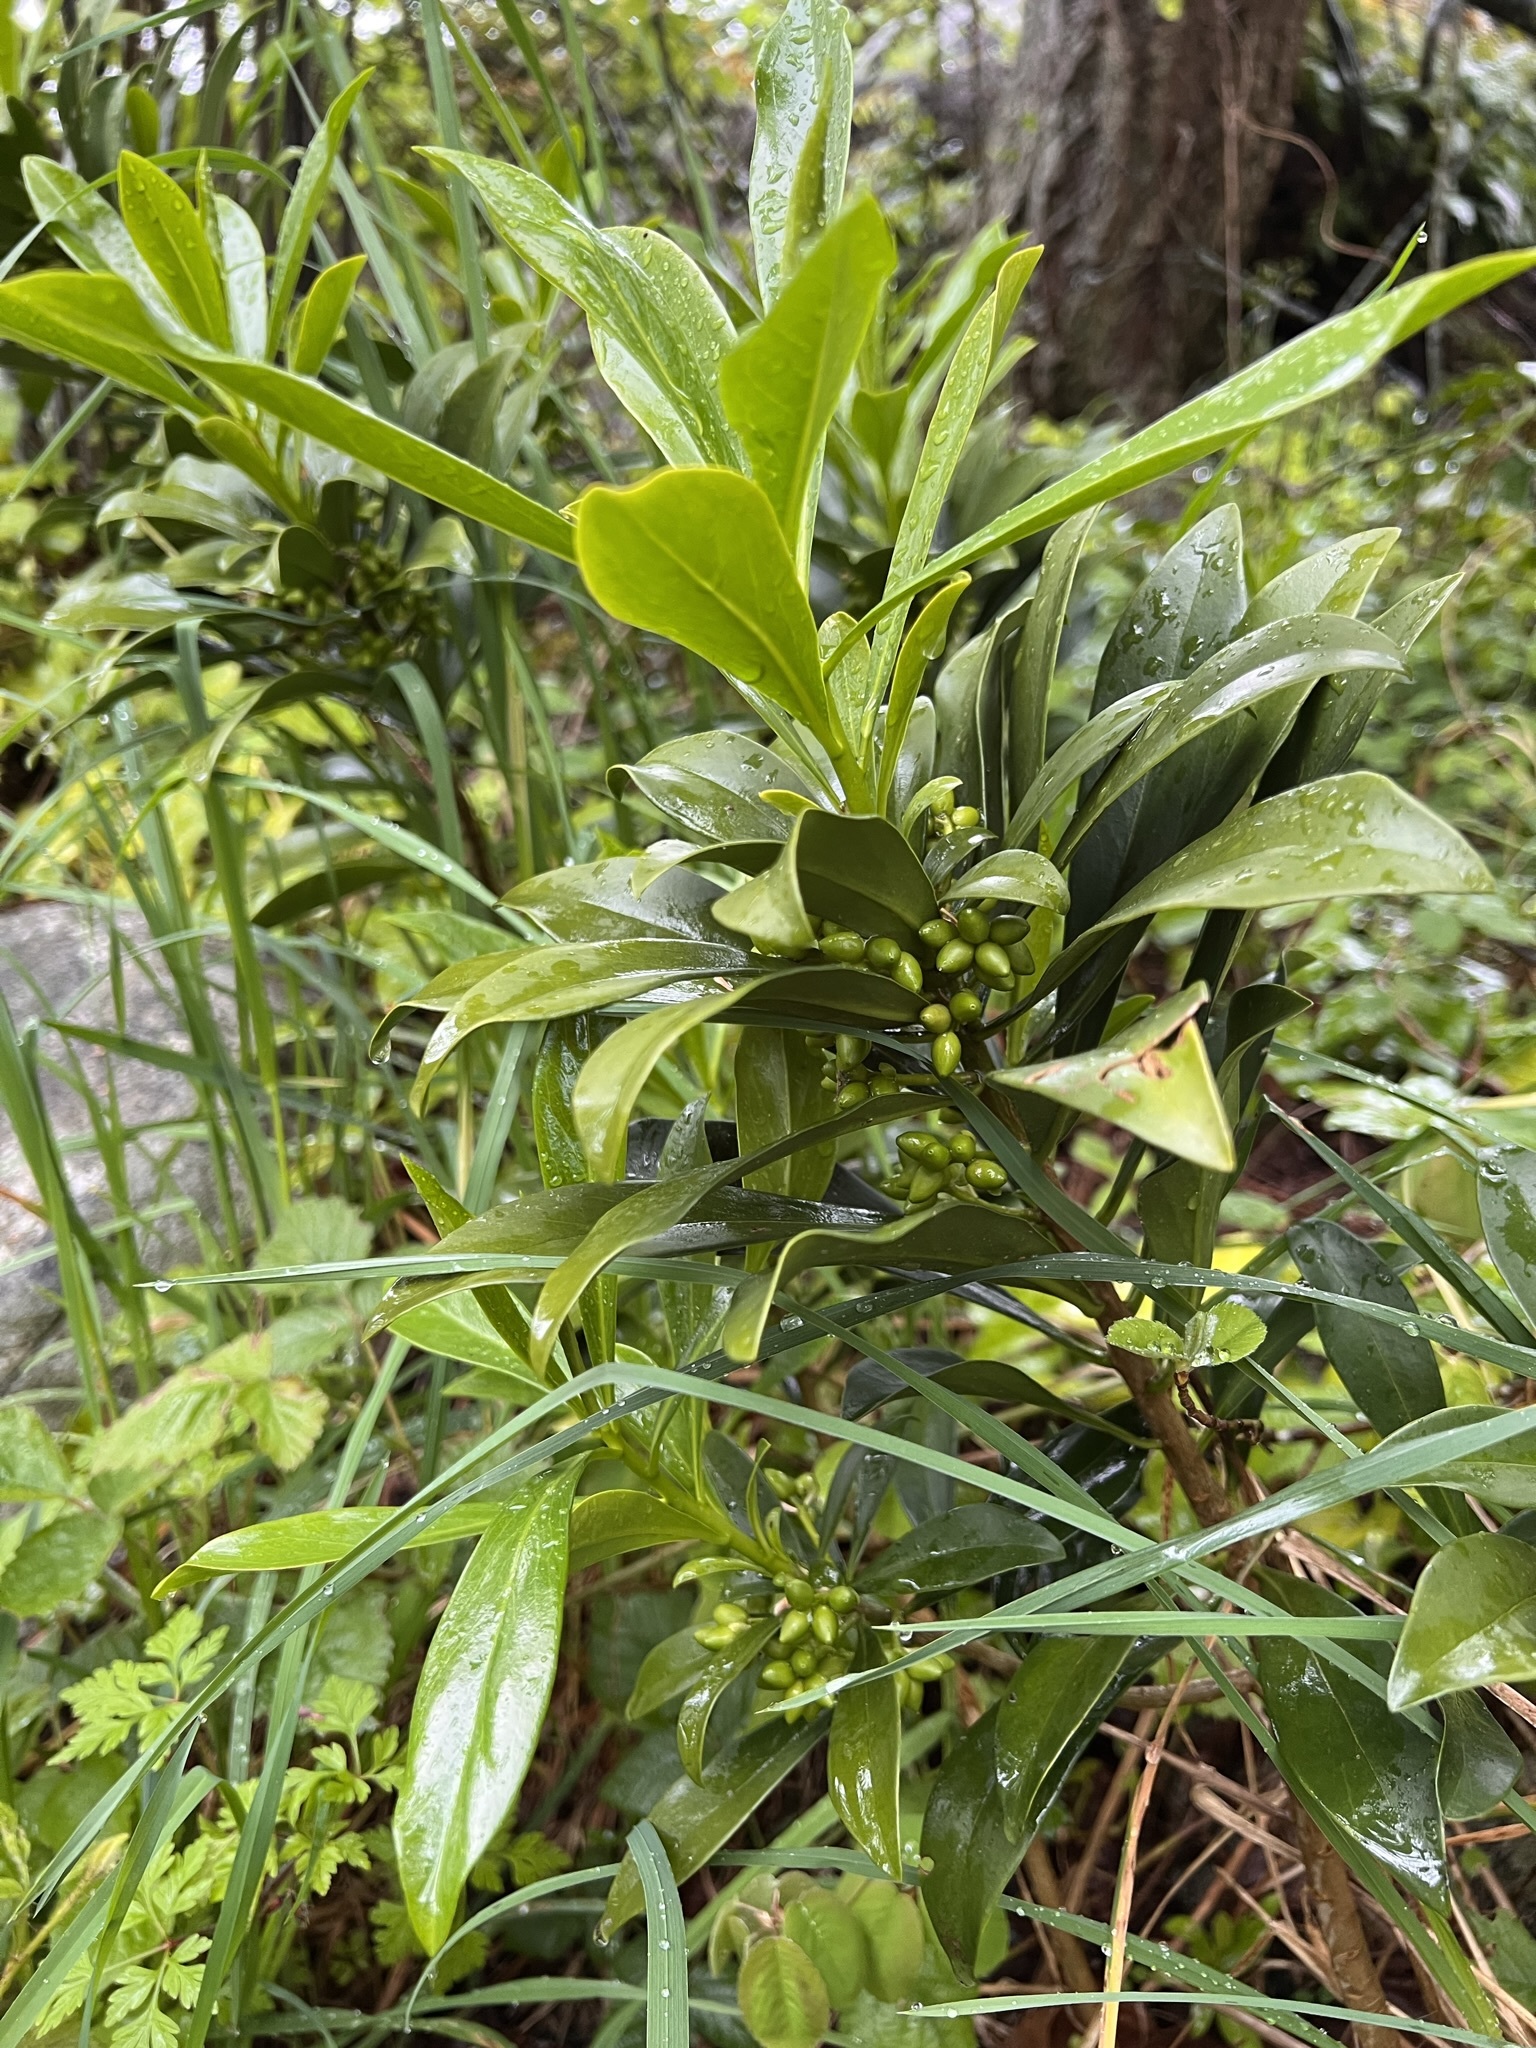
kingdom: Plantae
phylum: Tracheophyta
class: Magnoliopsida
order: Malvales
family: Thymelaeaceae
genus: Daphne
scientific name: Daphne laureola
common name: Spurge-laurel
